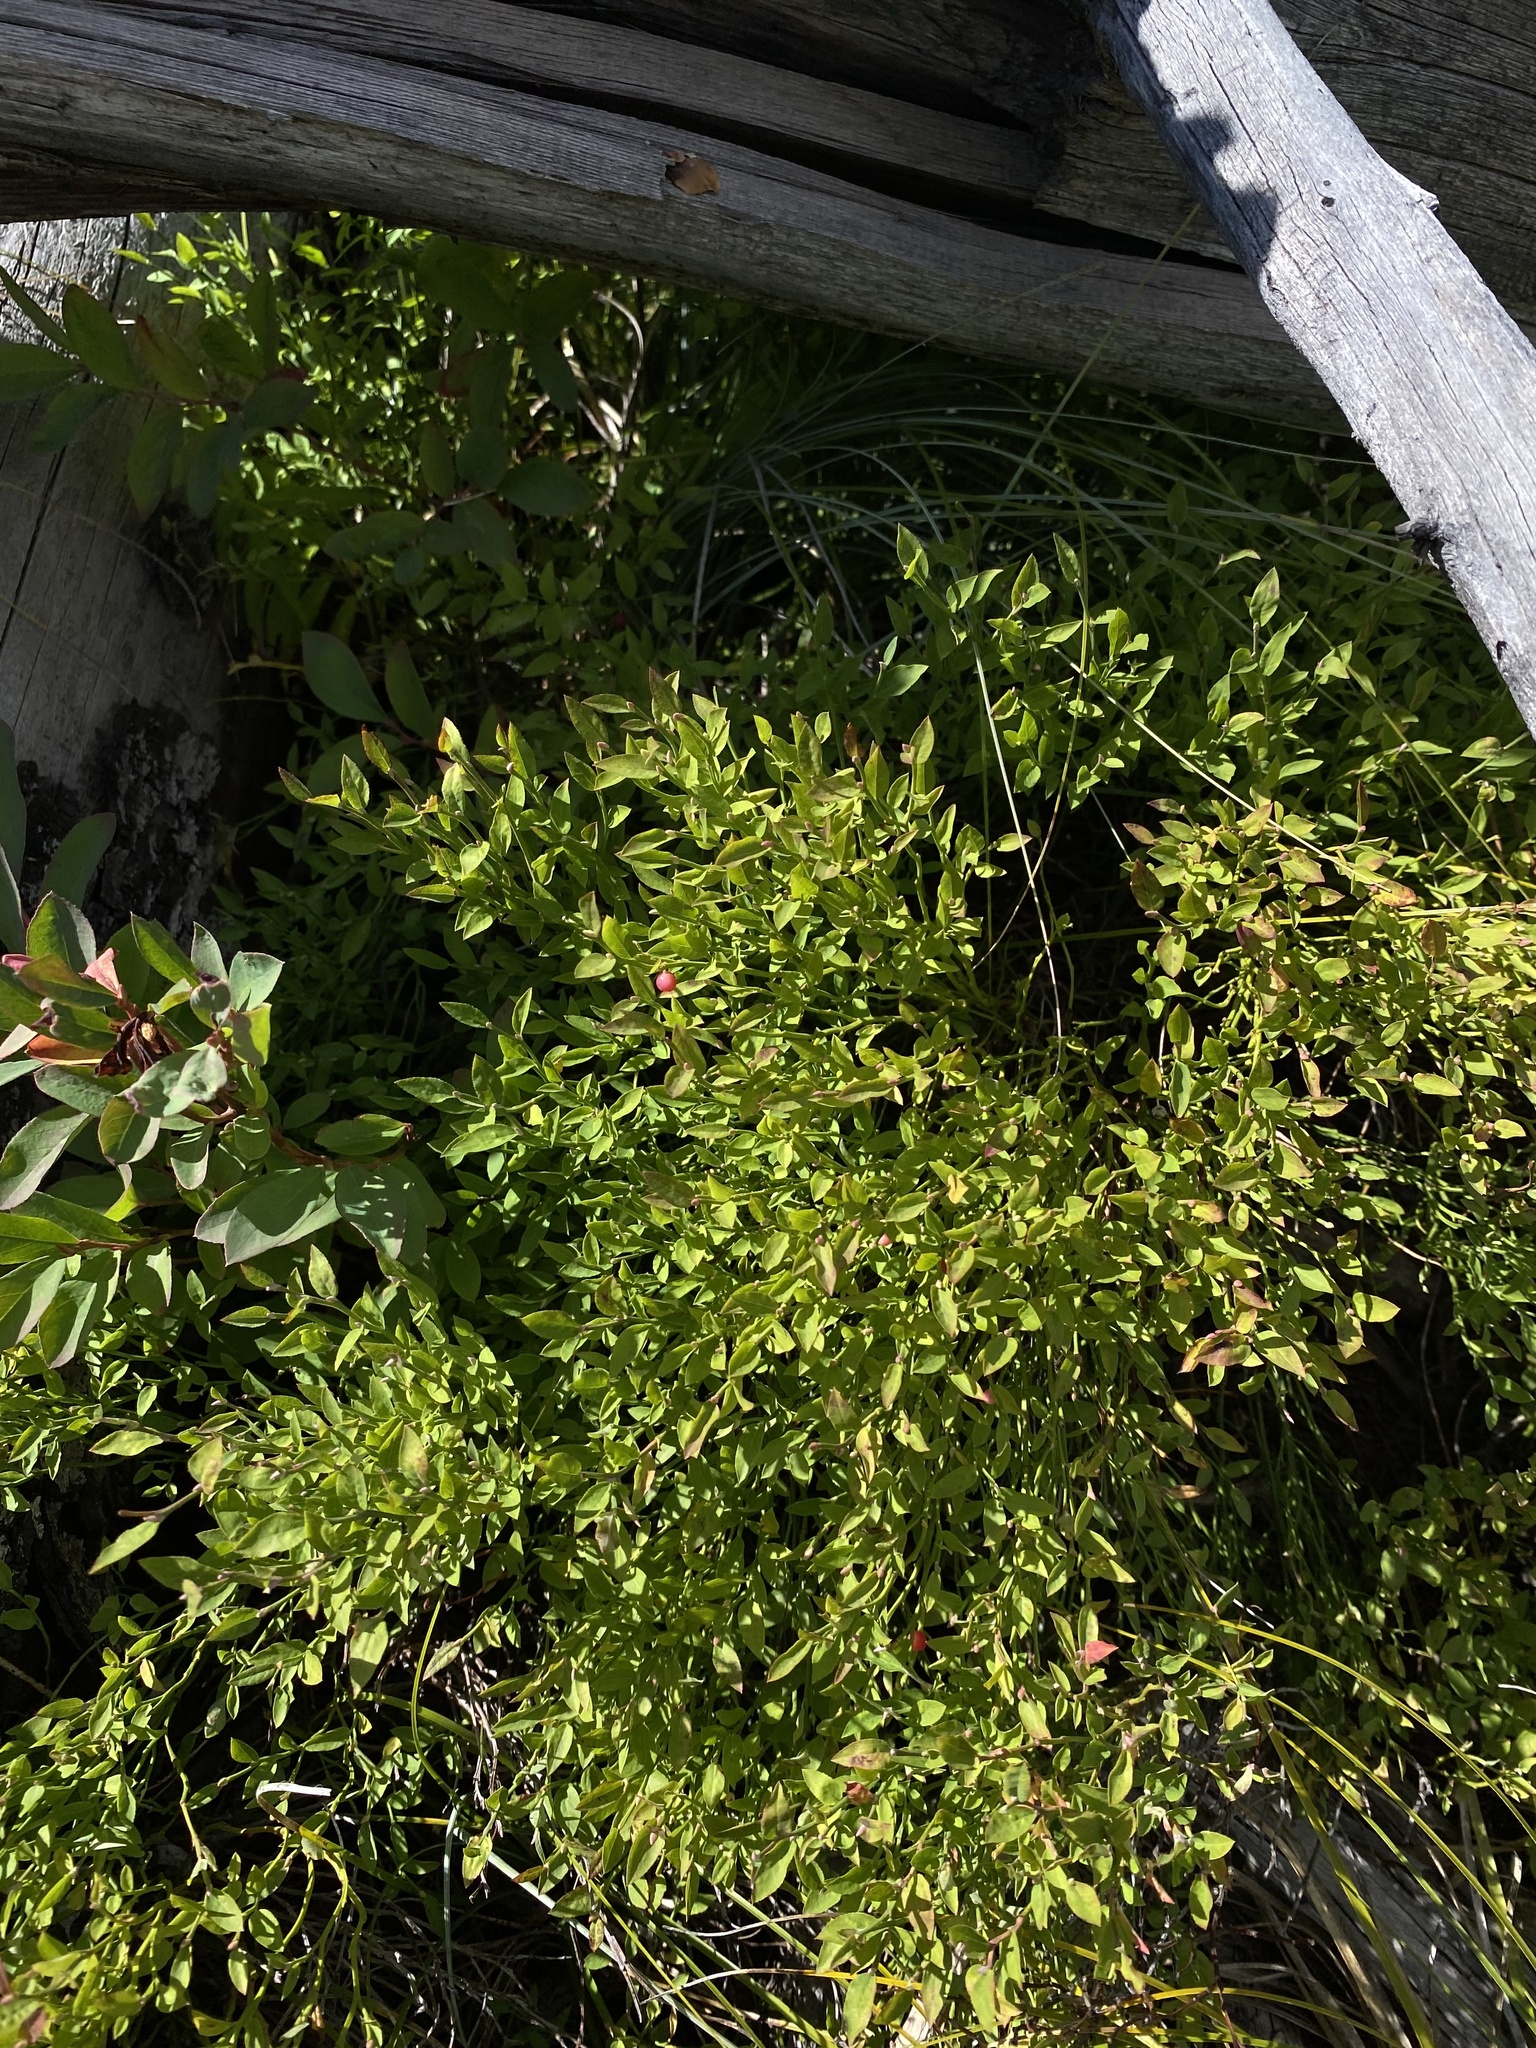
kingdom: Plantae
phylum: Tracheophyta
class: Magnoliopsida
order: Ericales
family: Ericaceae
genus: Vaccinium
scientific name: Vaccinium scoparium
